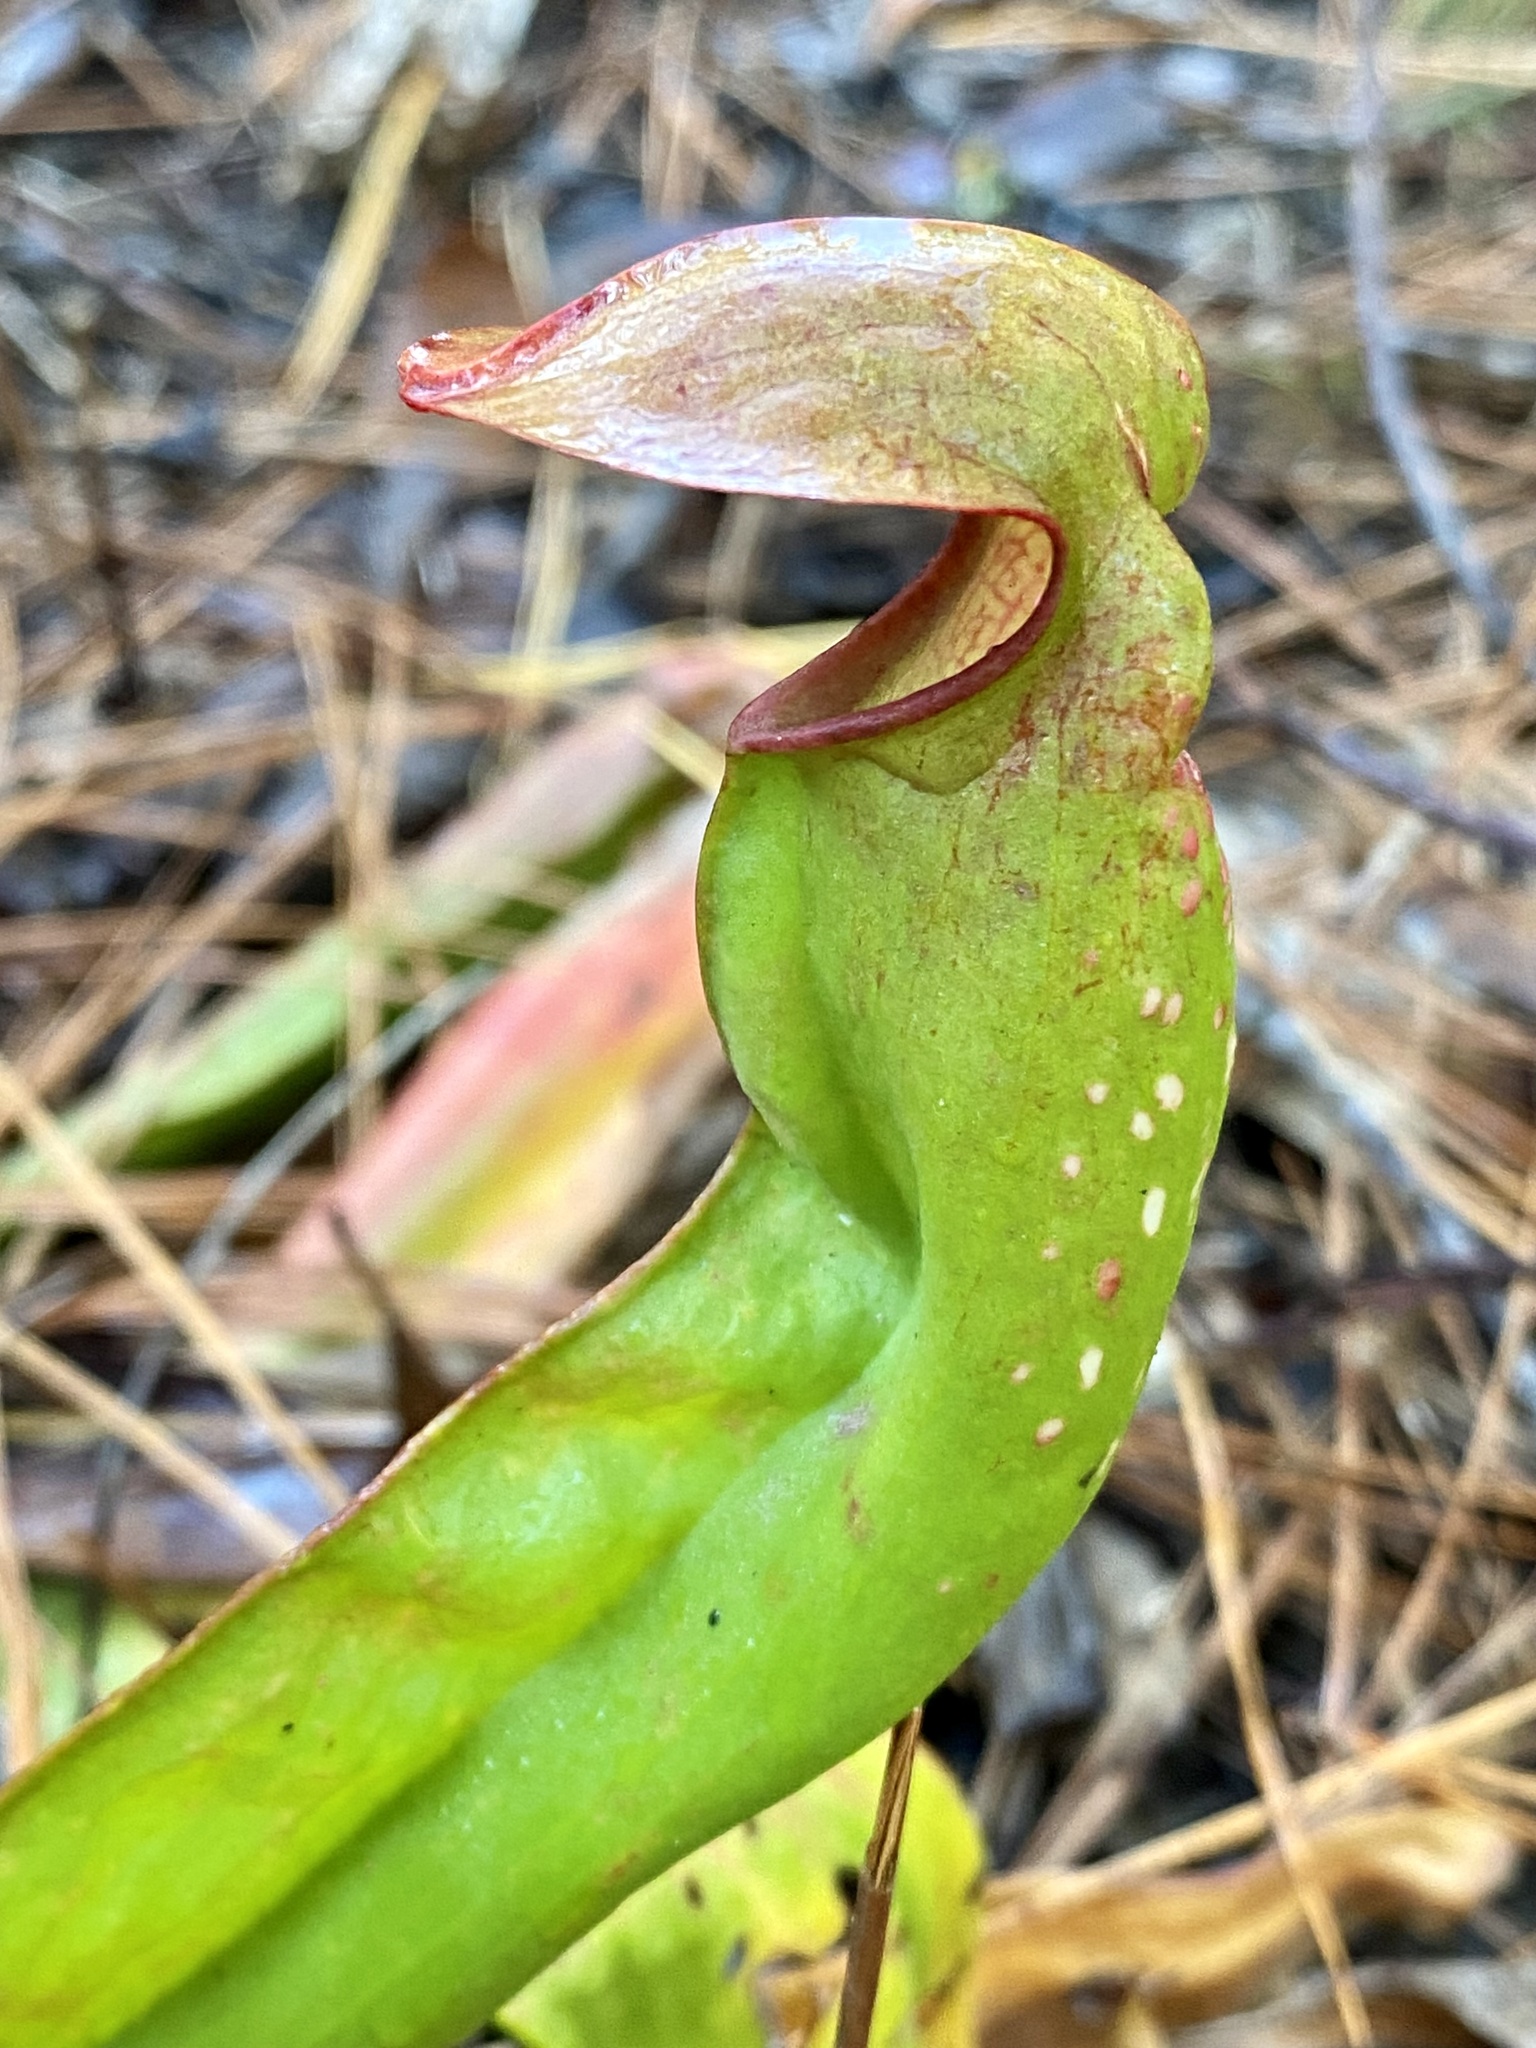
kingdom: Plantae
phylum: Tracheophyta
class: Magnoliopsida
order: Ericales
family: Sarraceniaceae
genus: Sarracenia
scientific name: Sarracenia minor
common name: Rainhat-trumpet
